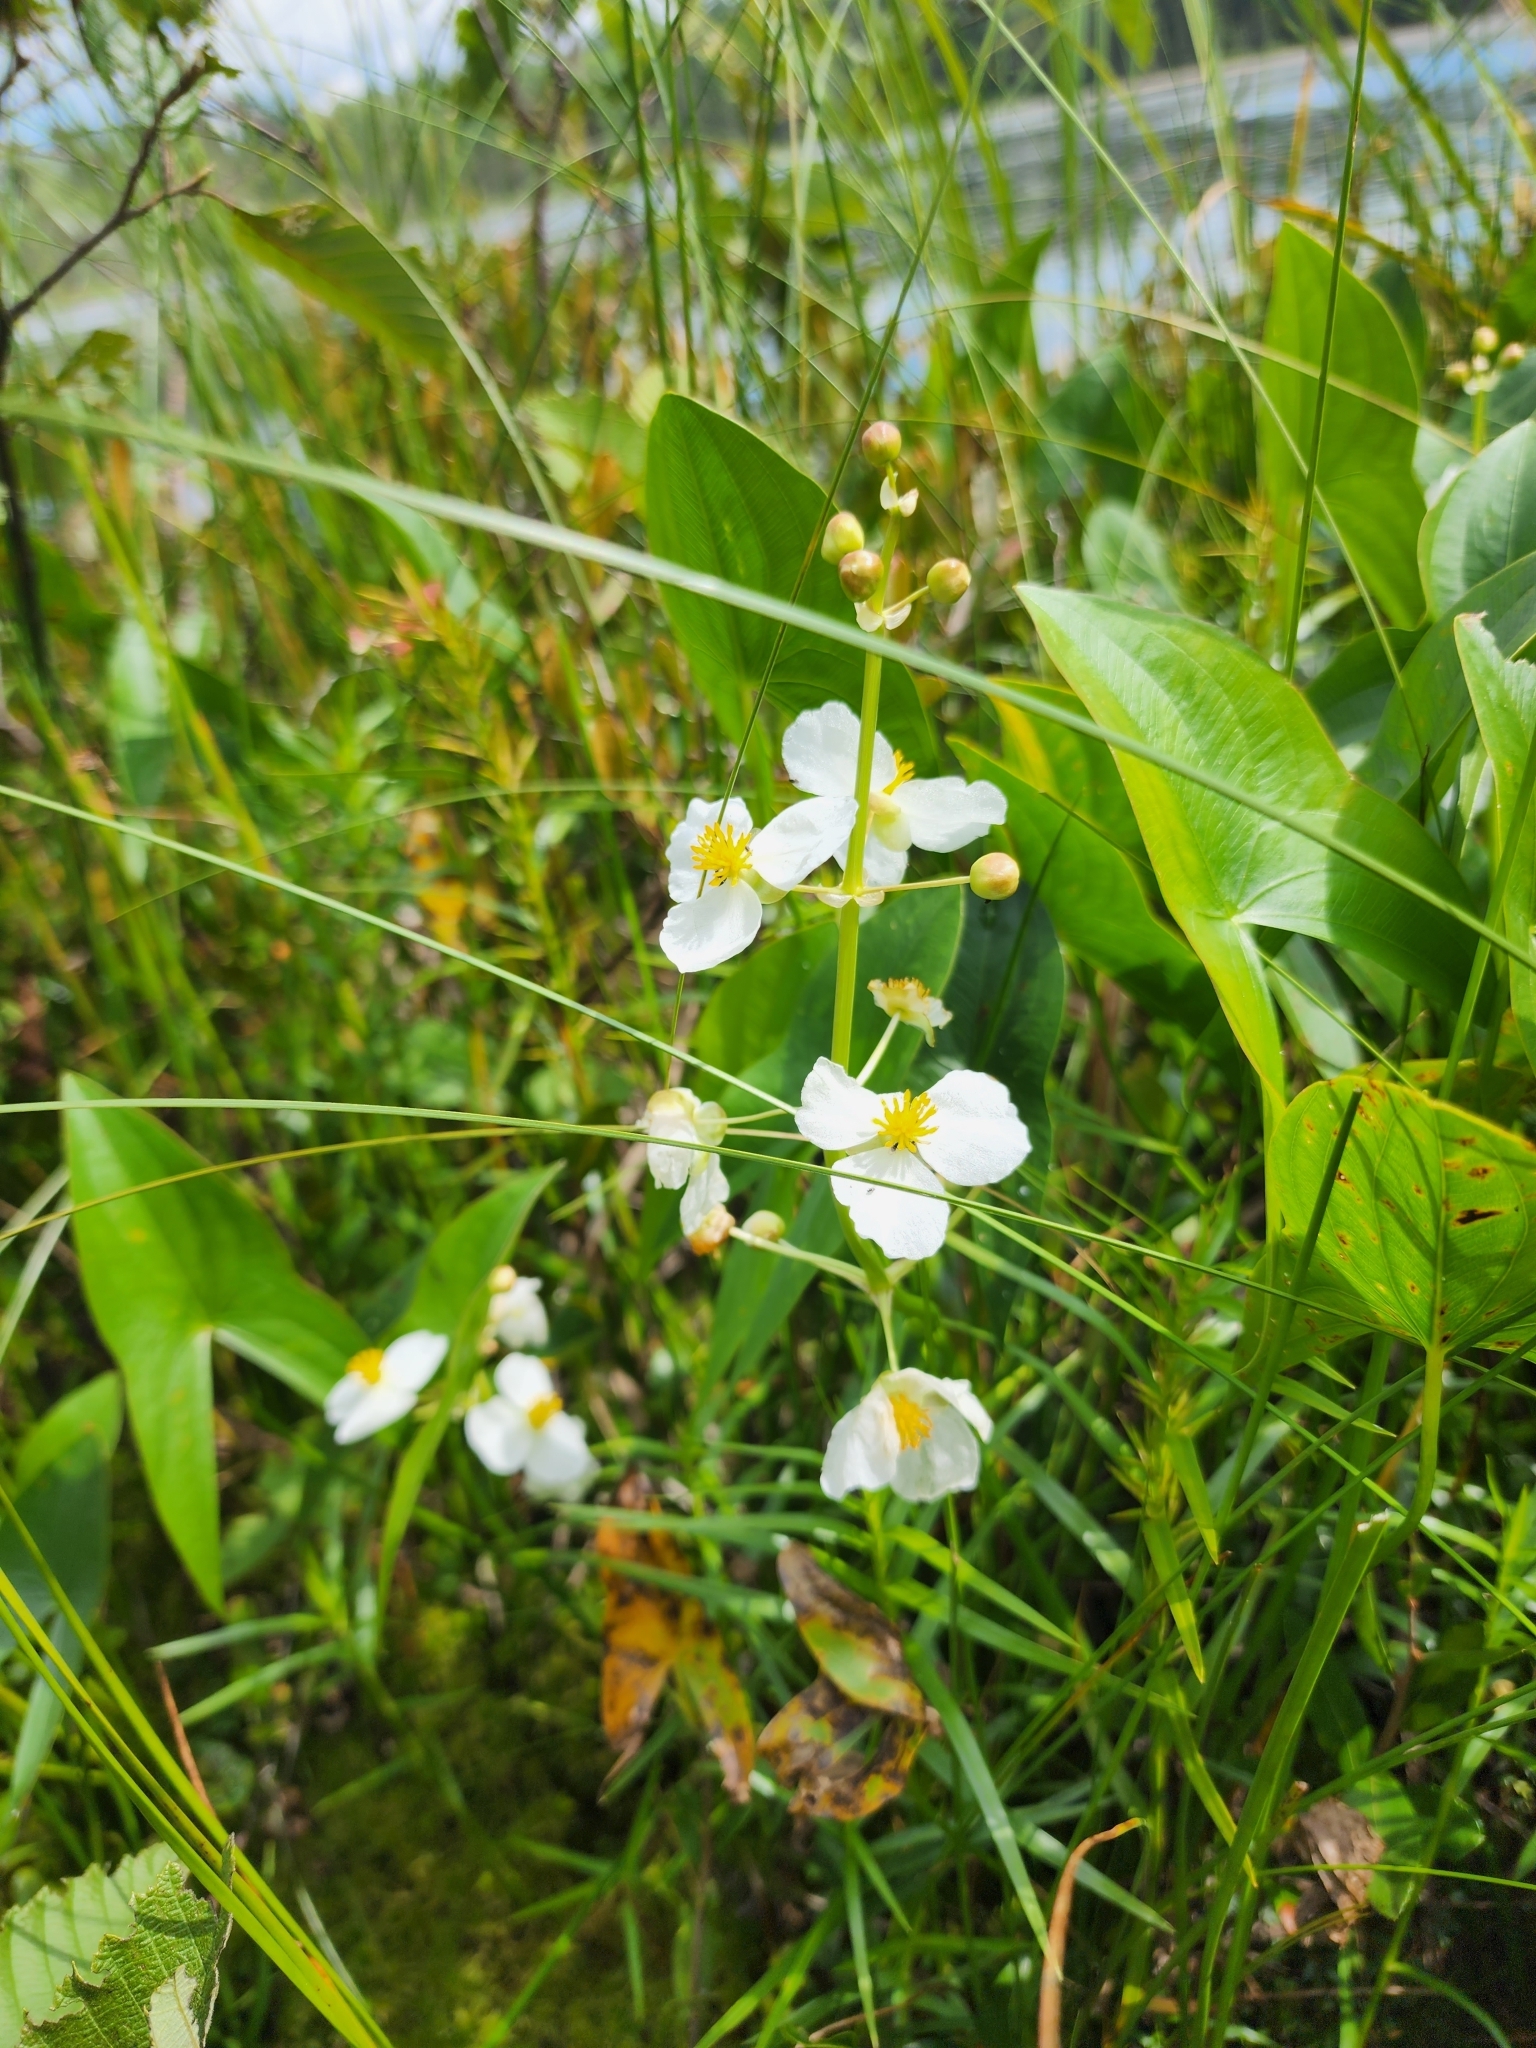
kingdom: Plantae
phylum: Tracheophyta
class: Liliopsida
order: Alismatales
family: Alismataceae
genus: Sagittaria
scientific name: Sagittaria latifolia
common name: Duck-potato
